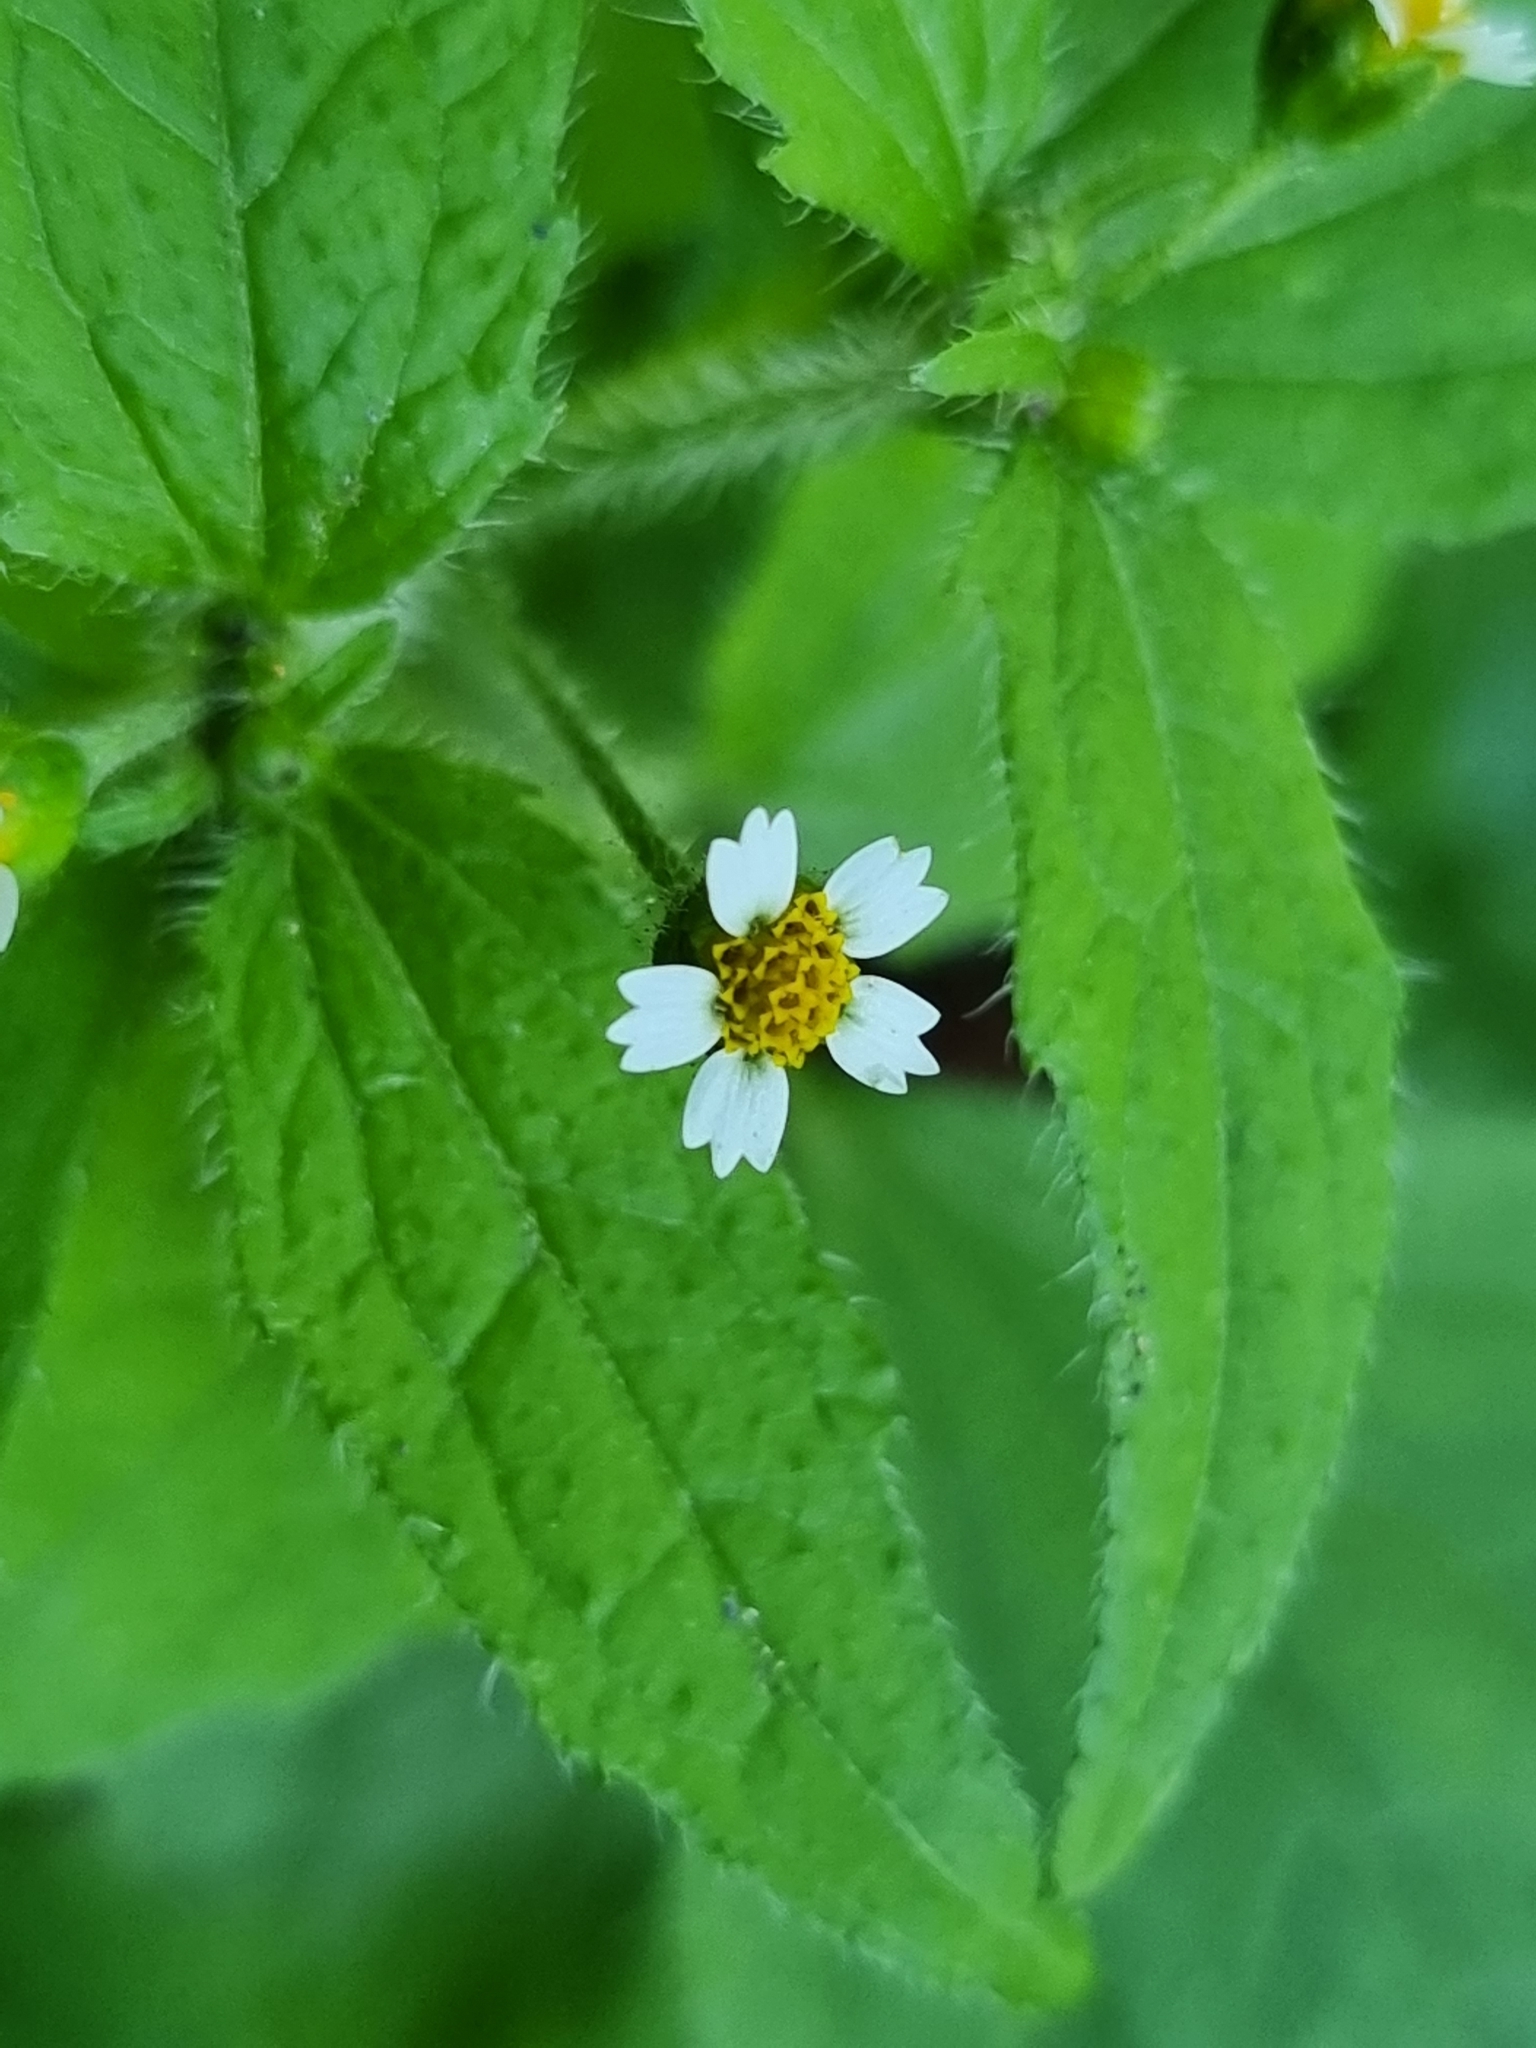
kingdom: Plantae
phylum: Tracheophyta
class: Magnoliopsida
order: Asterales
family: Asteraceae
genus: Galinsoga
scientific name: Galinsoga quadriradiata
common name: Shaggy soldier
